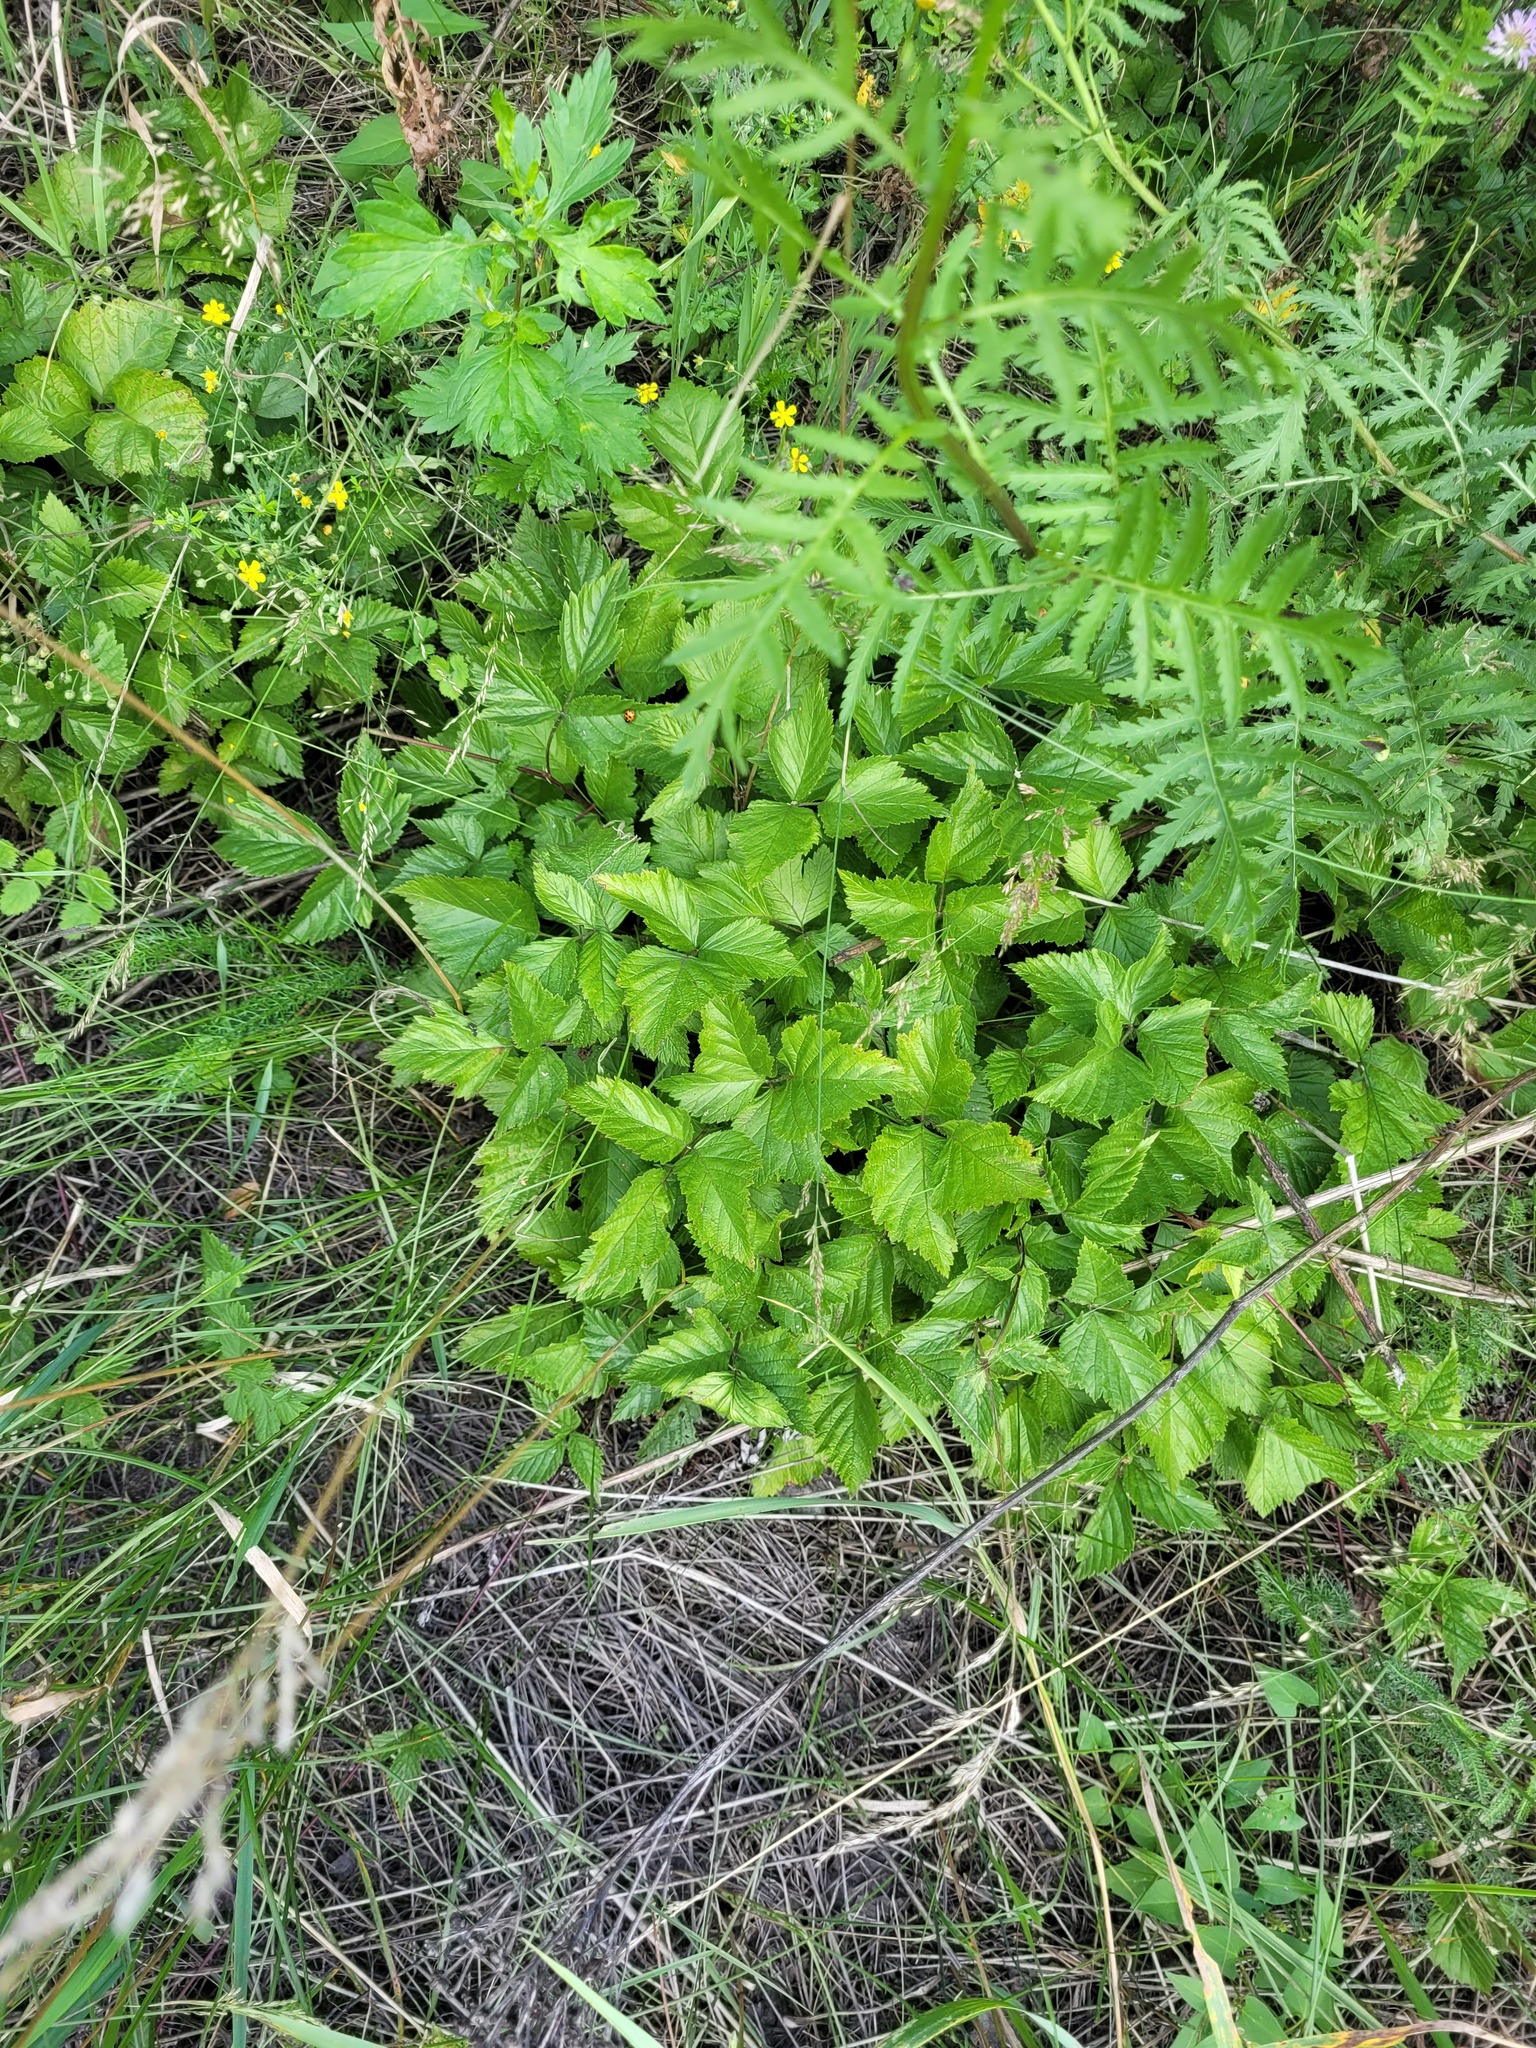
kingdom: Plantae
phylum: Tracheophyta
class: Magnoliopsida
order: Rosales
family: Rosaceae
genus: Rubus
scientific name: Rubus saxatilis
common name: Stone bramble
